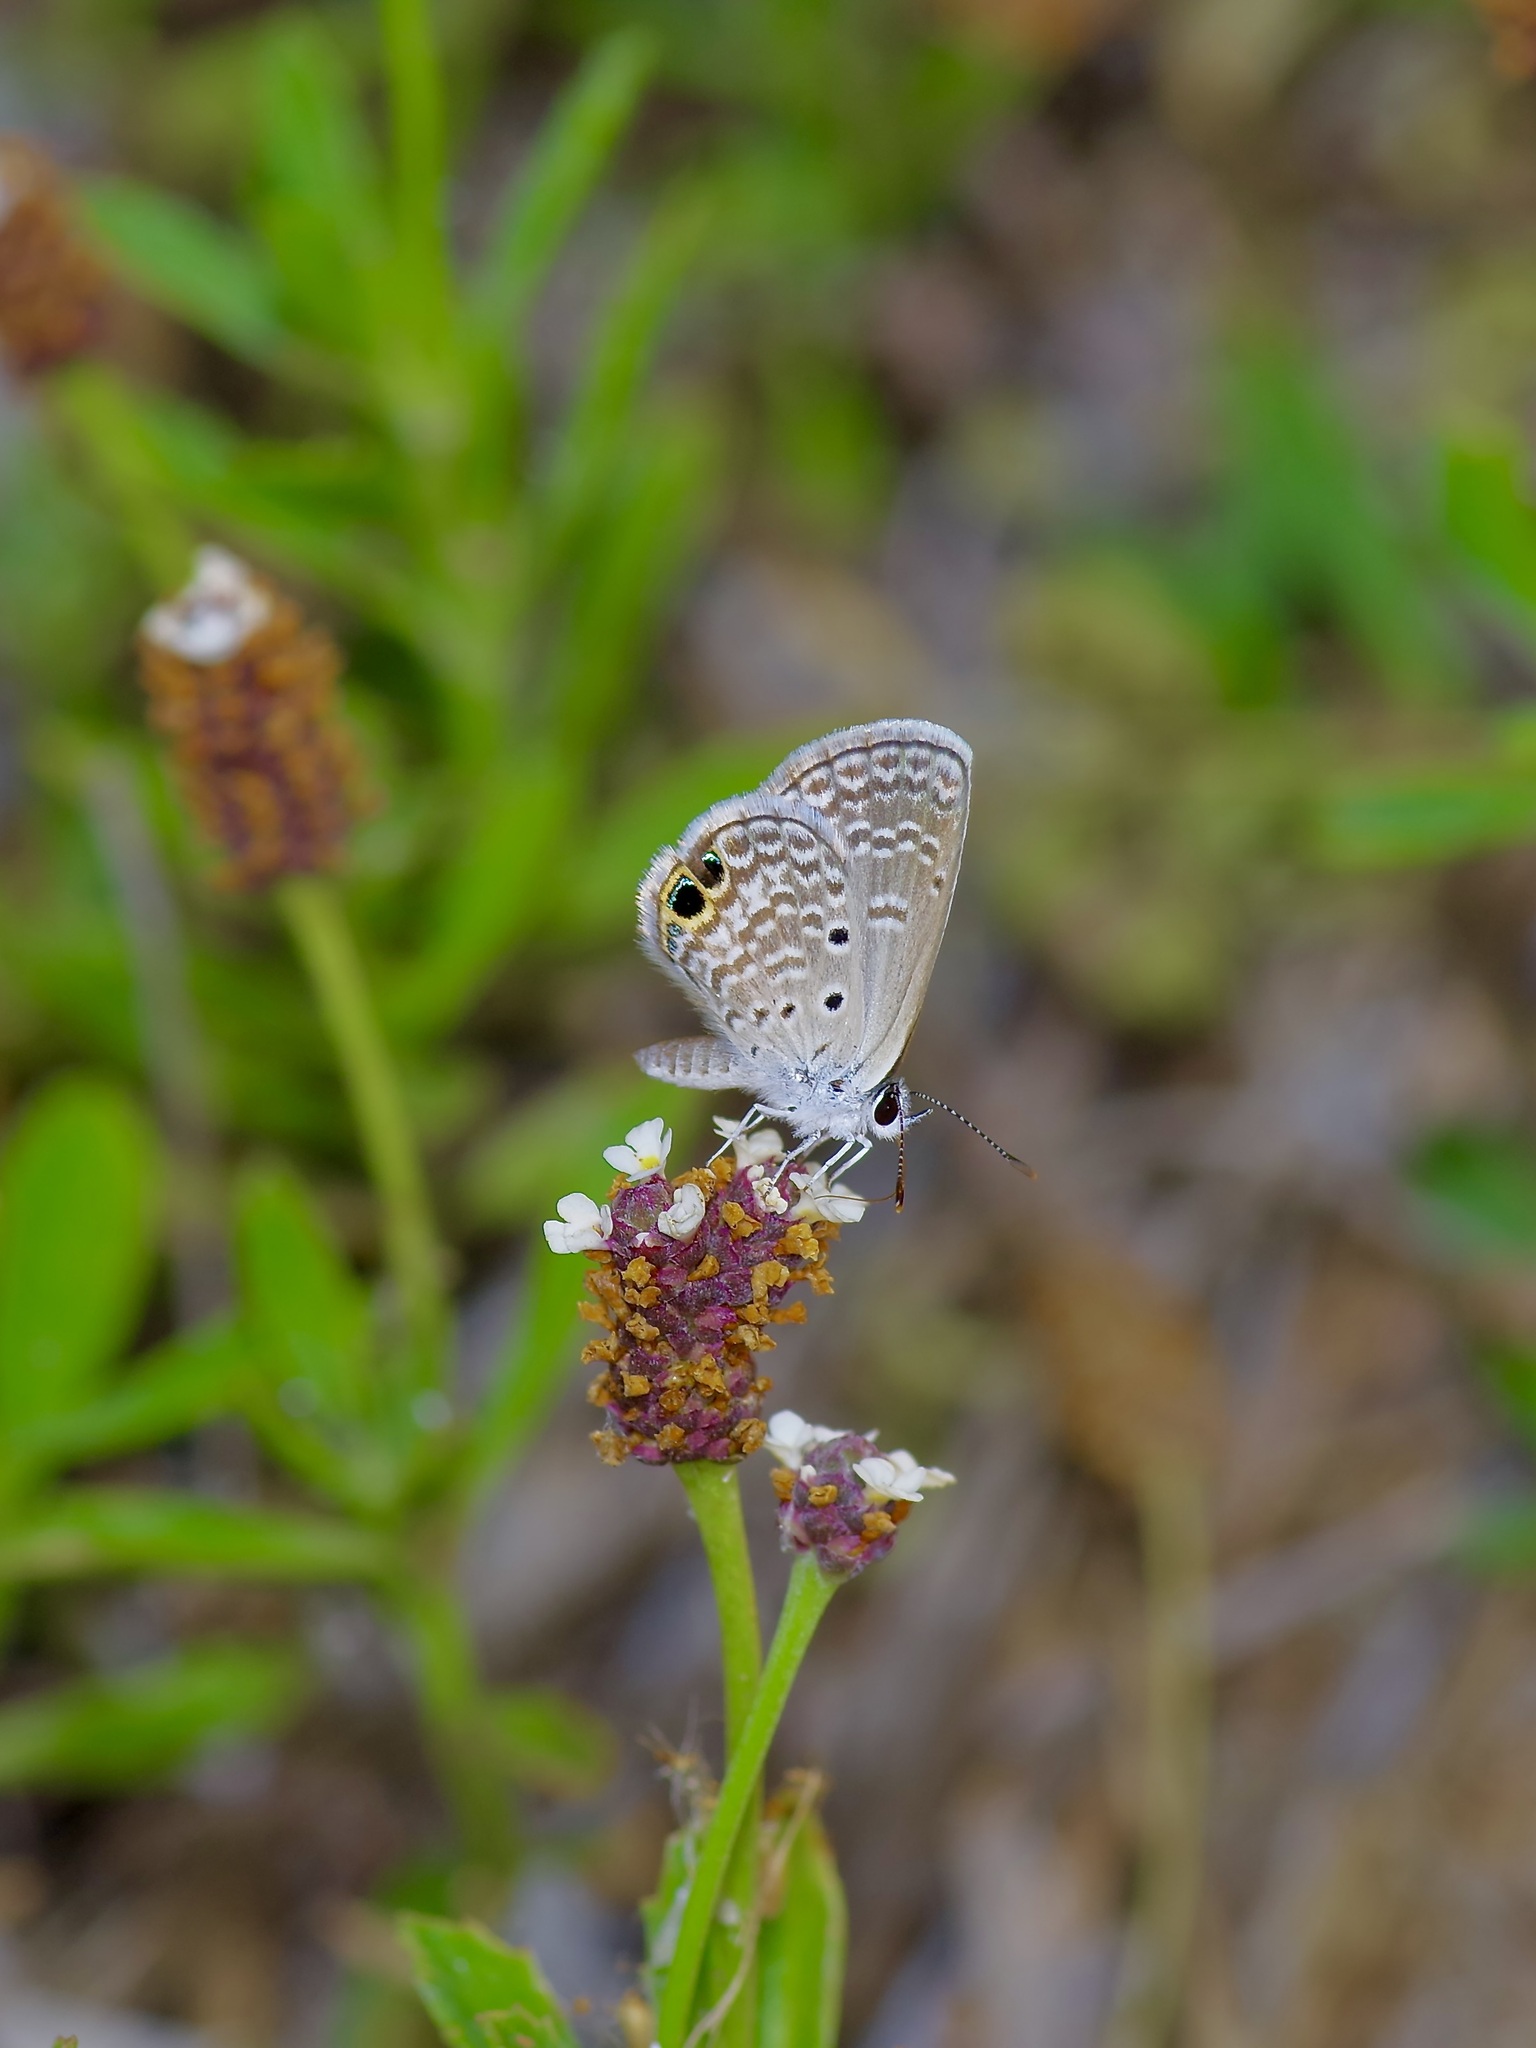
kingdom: Animalia
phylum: Arthropoda
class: Insecta
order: Lepidoptera
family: Lycaenidae
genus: Hemiargus
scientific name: Hemiargus ceraunus
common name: Ceraunus blue
